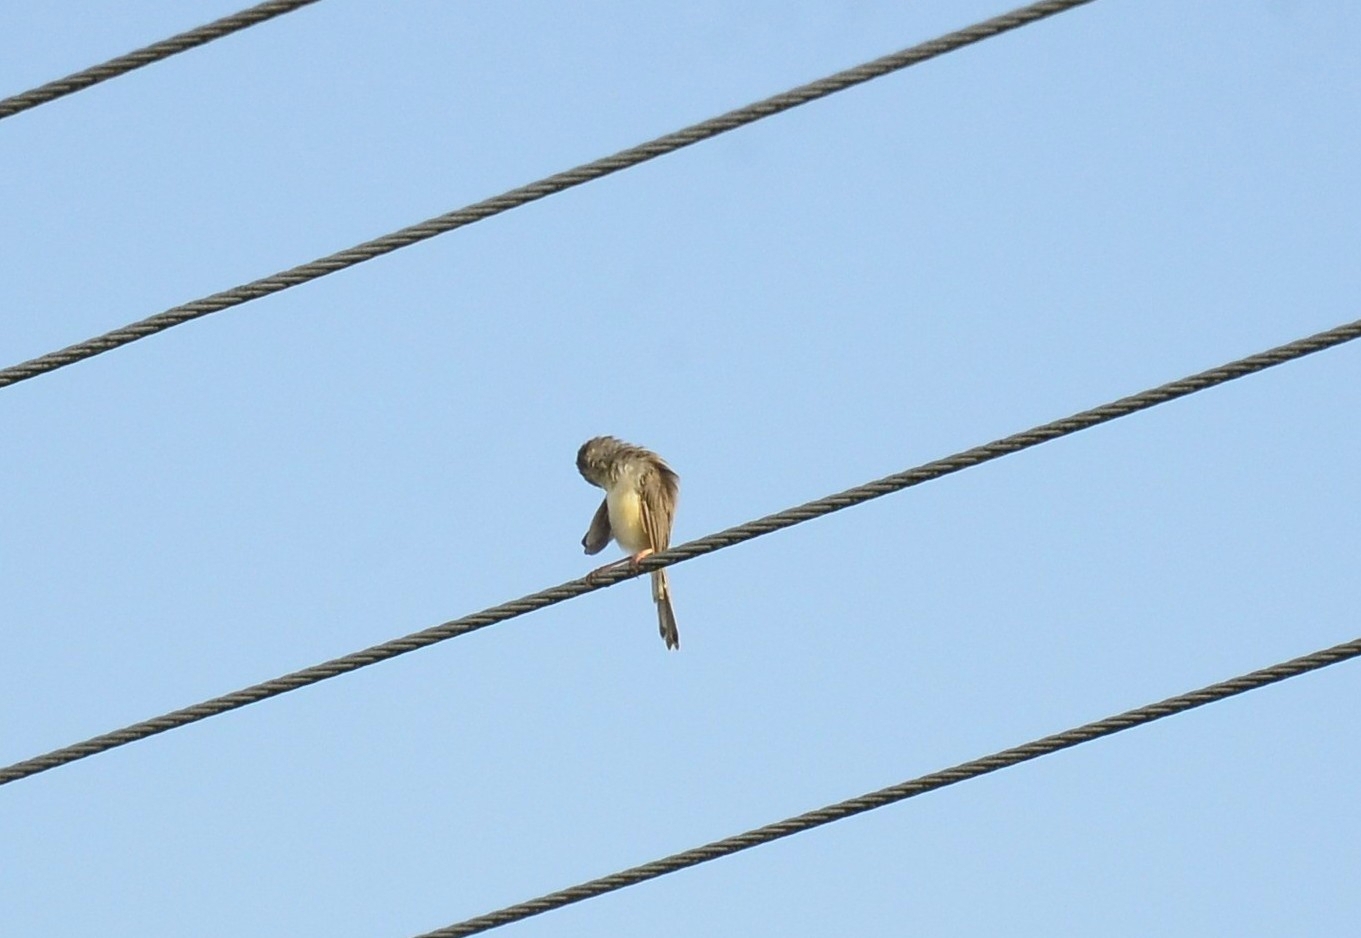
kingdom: Animalia
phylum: Chordata
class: Aves
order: Passeriformes
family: Cisticolidae
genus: Prinia
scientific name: Prinia inornata
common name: Plain prinia
